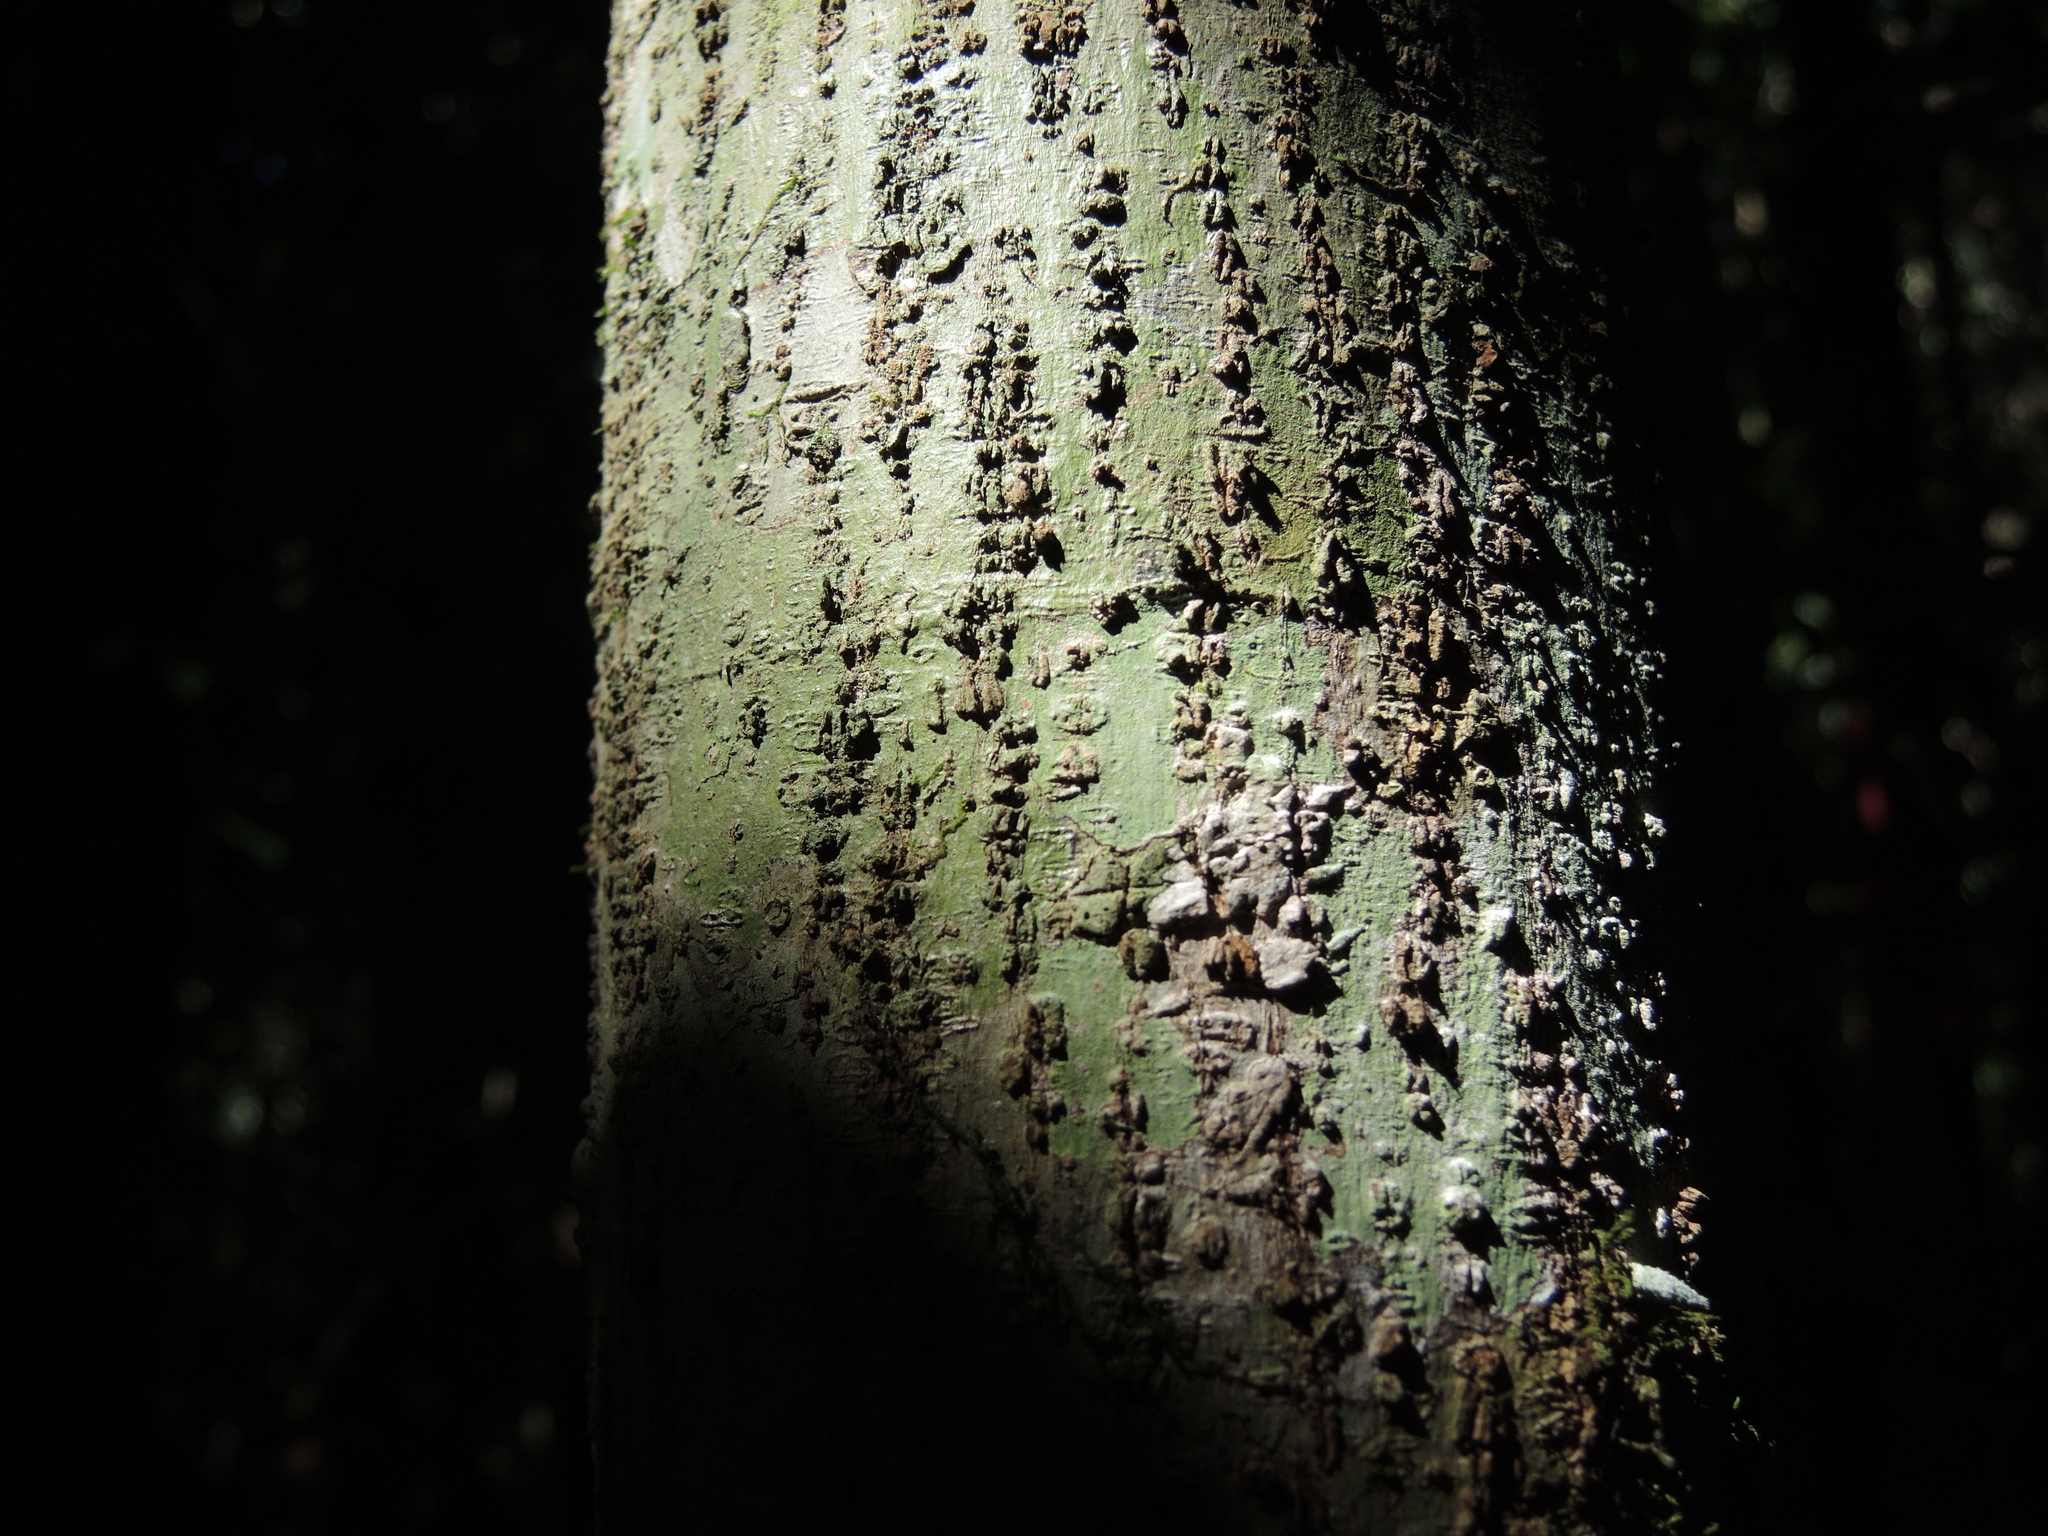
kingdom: Plantae
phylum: Tracheophyta
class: Magnoliopsida
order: Rosales
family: Cannabaceae
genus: Aphananthe
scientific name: Aphananthe philippinensis
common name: Wild holly
